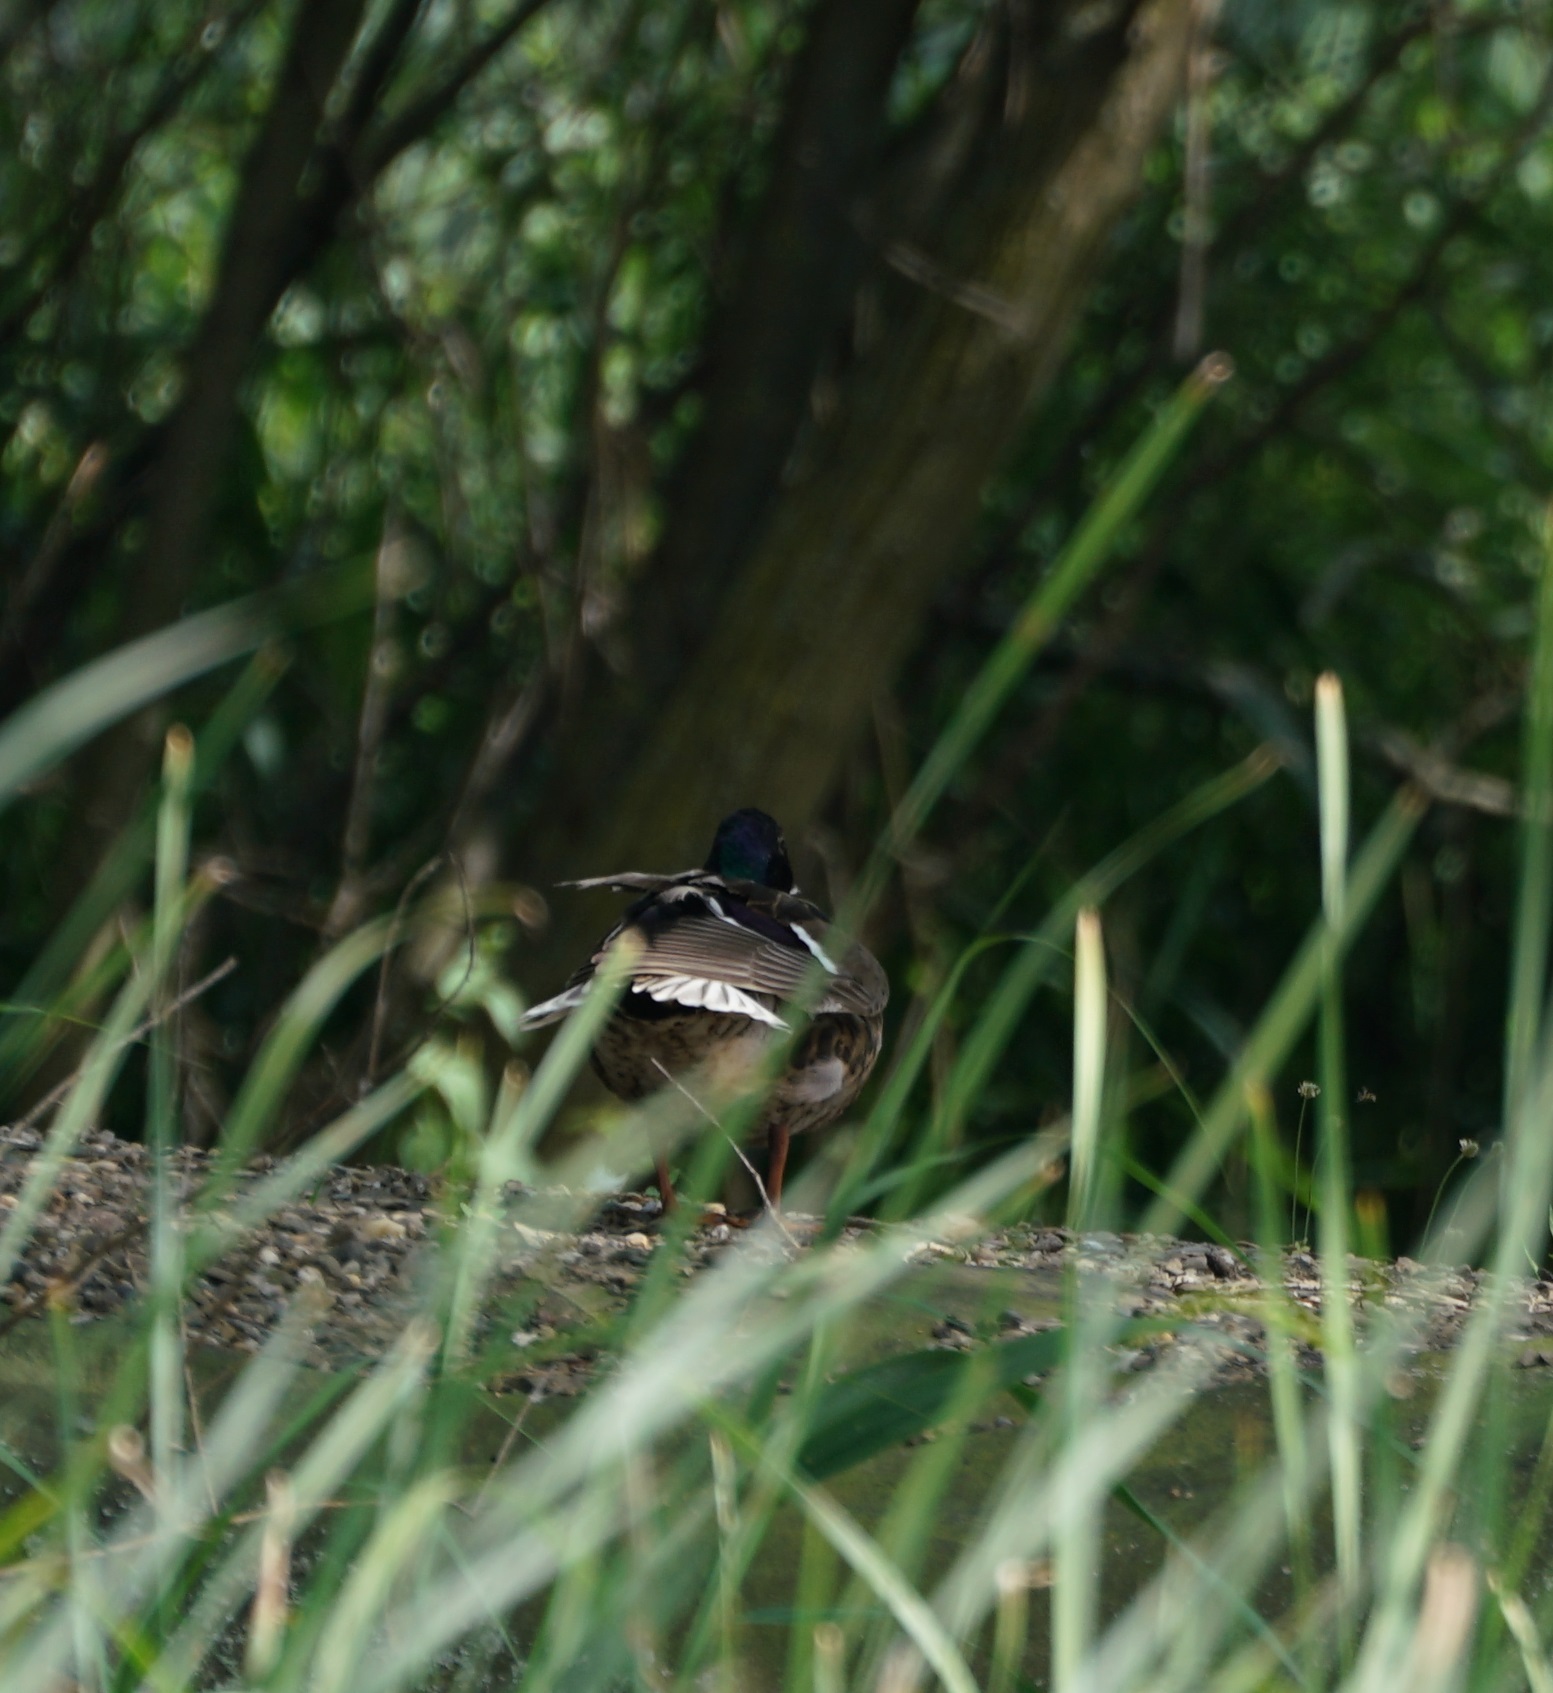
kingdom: Animalia
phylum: Chordata
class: Aves
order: Anseriformes
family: Anatidae
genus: Anas
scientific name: Anas platyrhynchos
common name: Mallard
